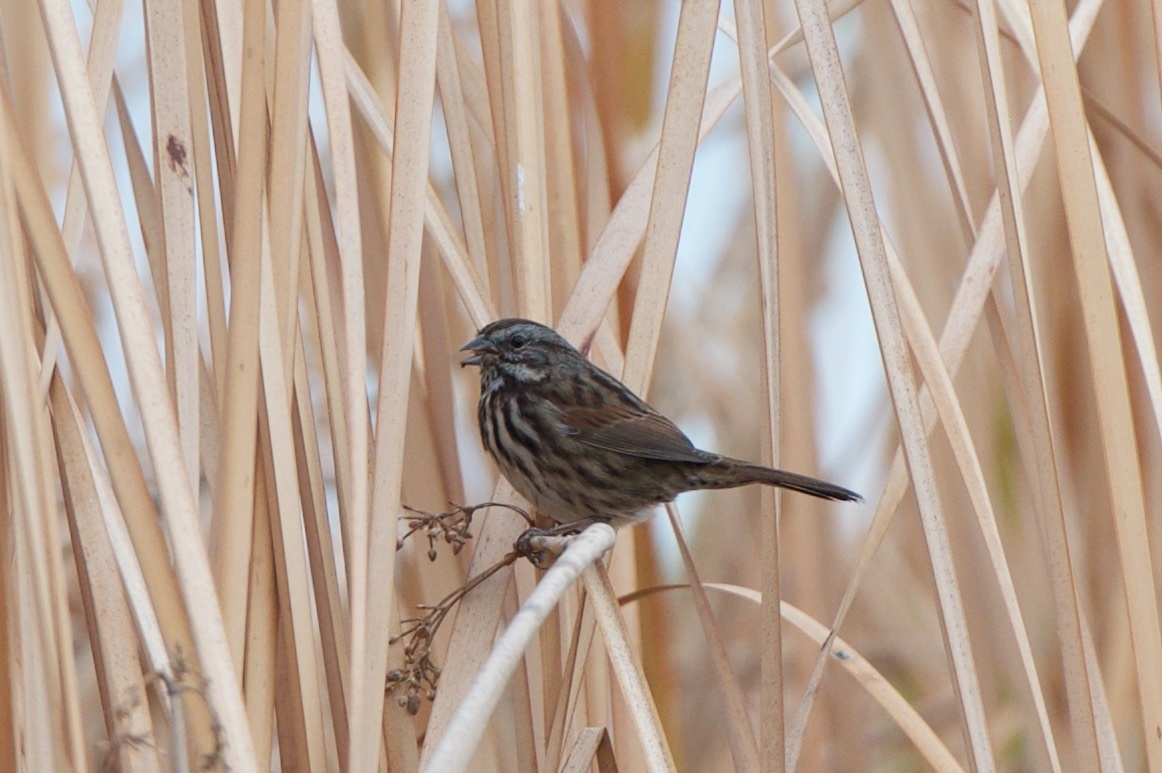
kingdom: Animalia
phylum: Chordata
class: Aves
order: Passeriformes
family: Passerellidae
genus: Melospiza
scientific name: Melospiza melodia
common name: Song sparrow
